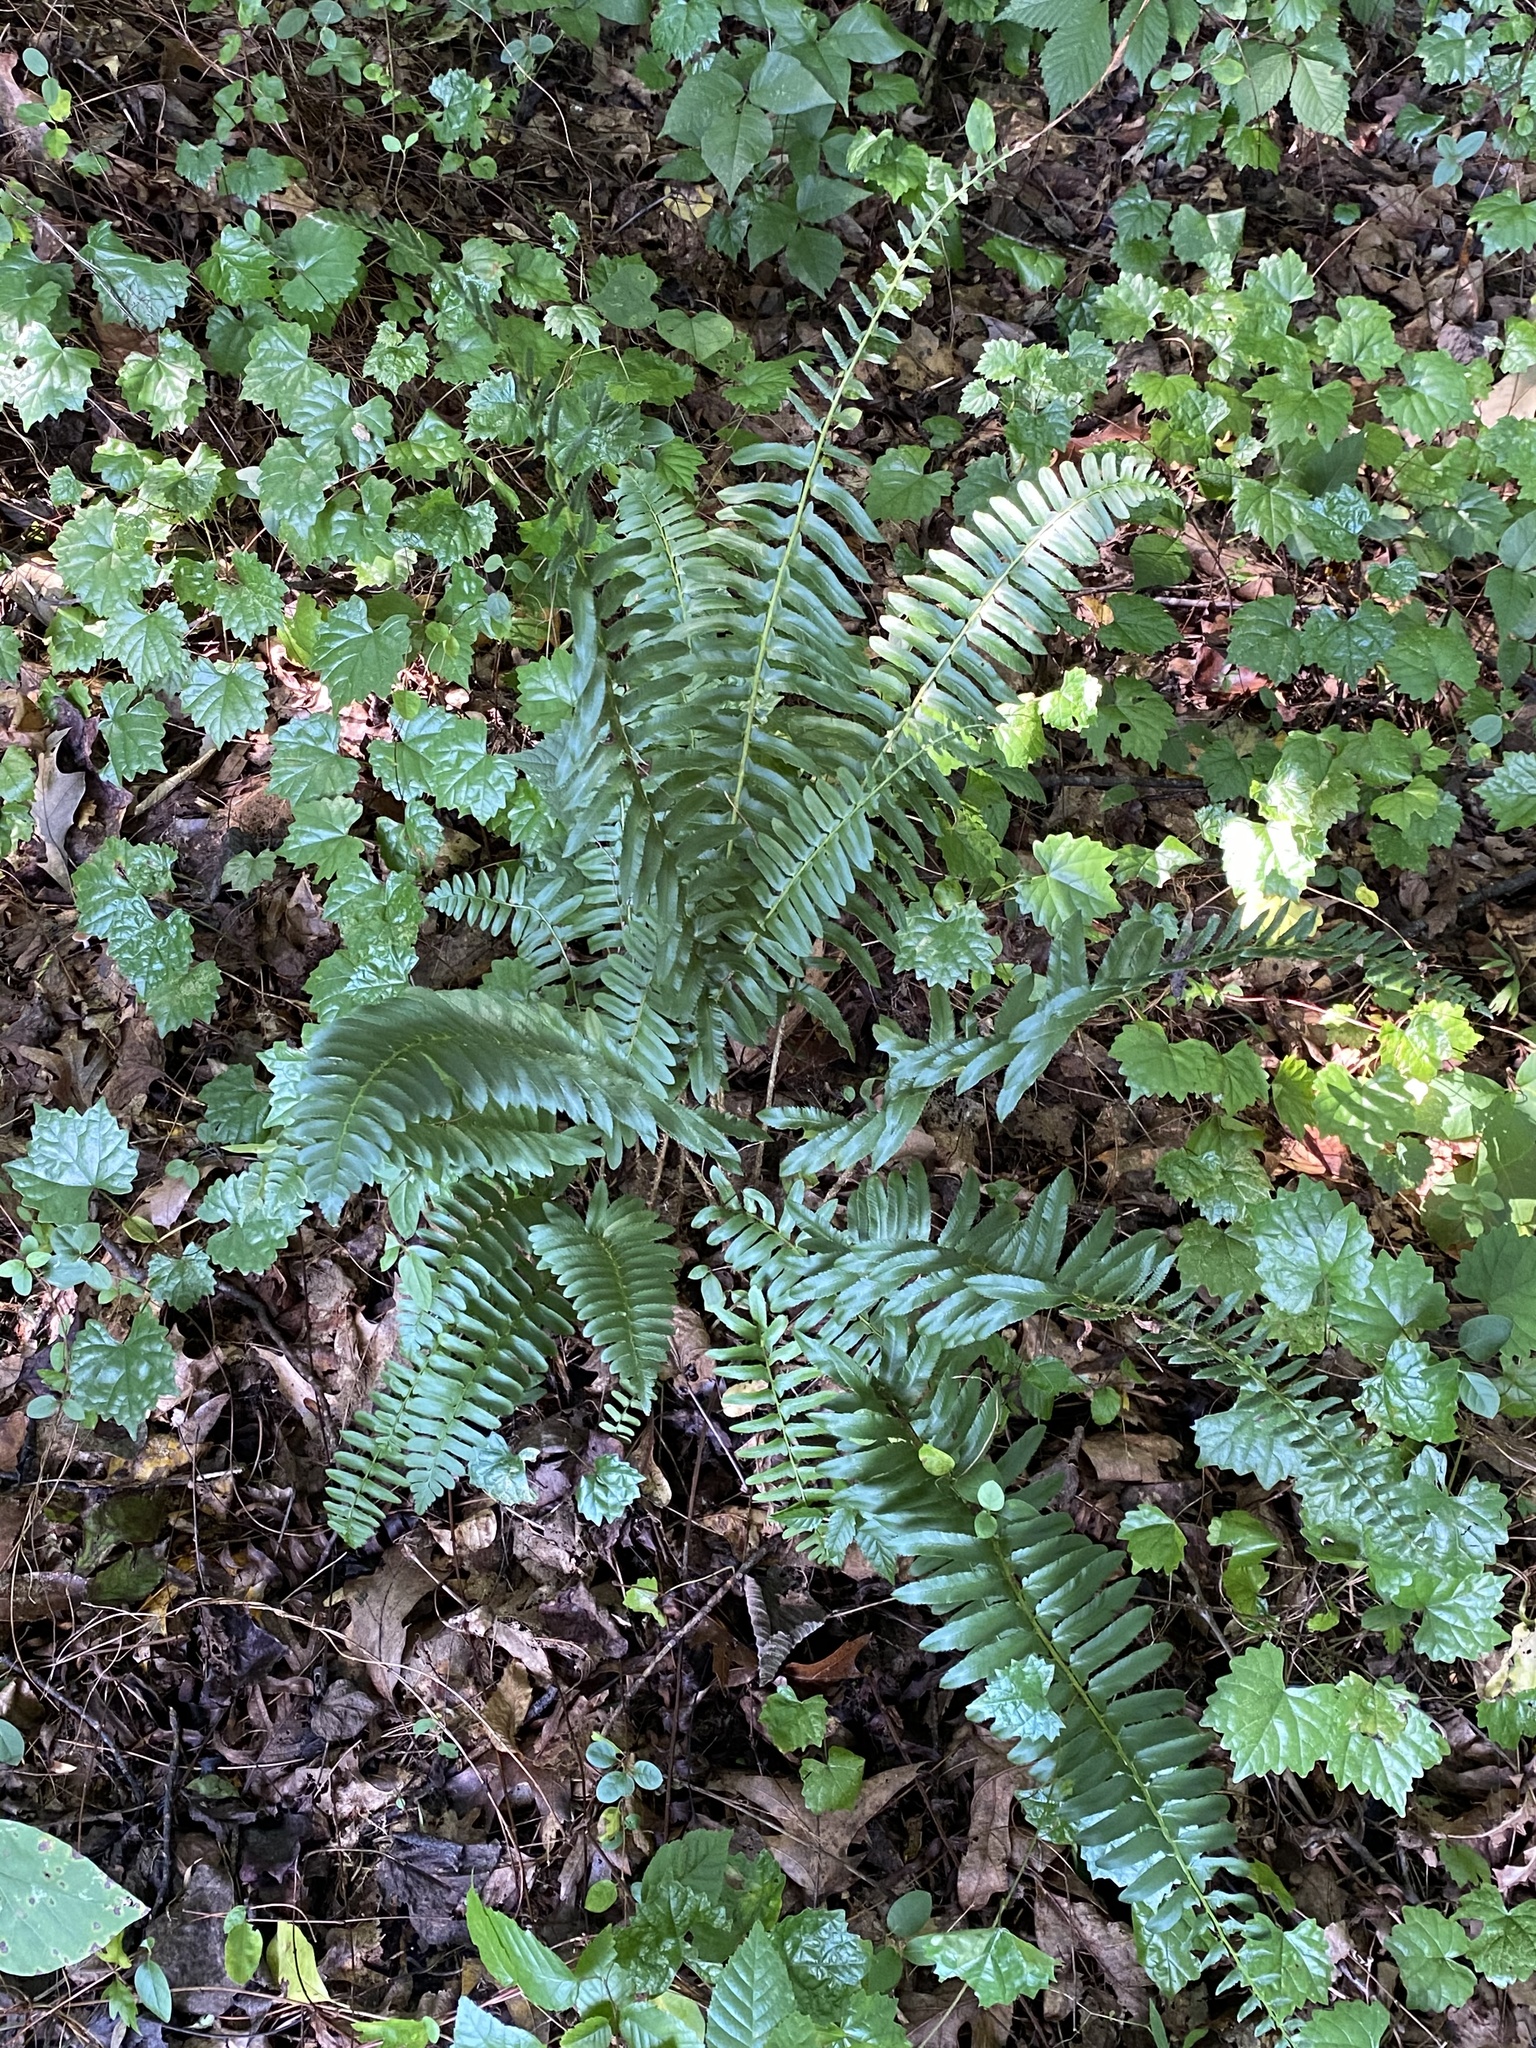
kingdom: Plantae
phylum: Tracheophyta
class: Polypodiopsida
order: Polypodiales
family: Dryopteridaceae
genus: Polystichum
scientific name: Polystichum acrostichoides
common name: Christmas fern
